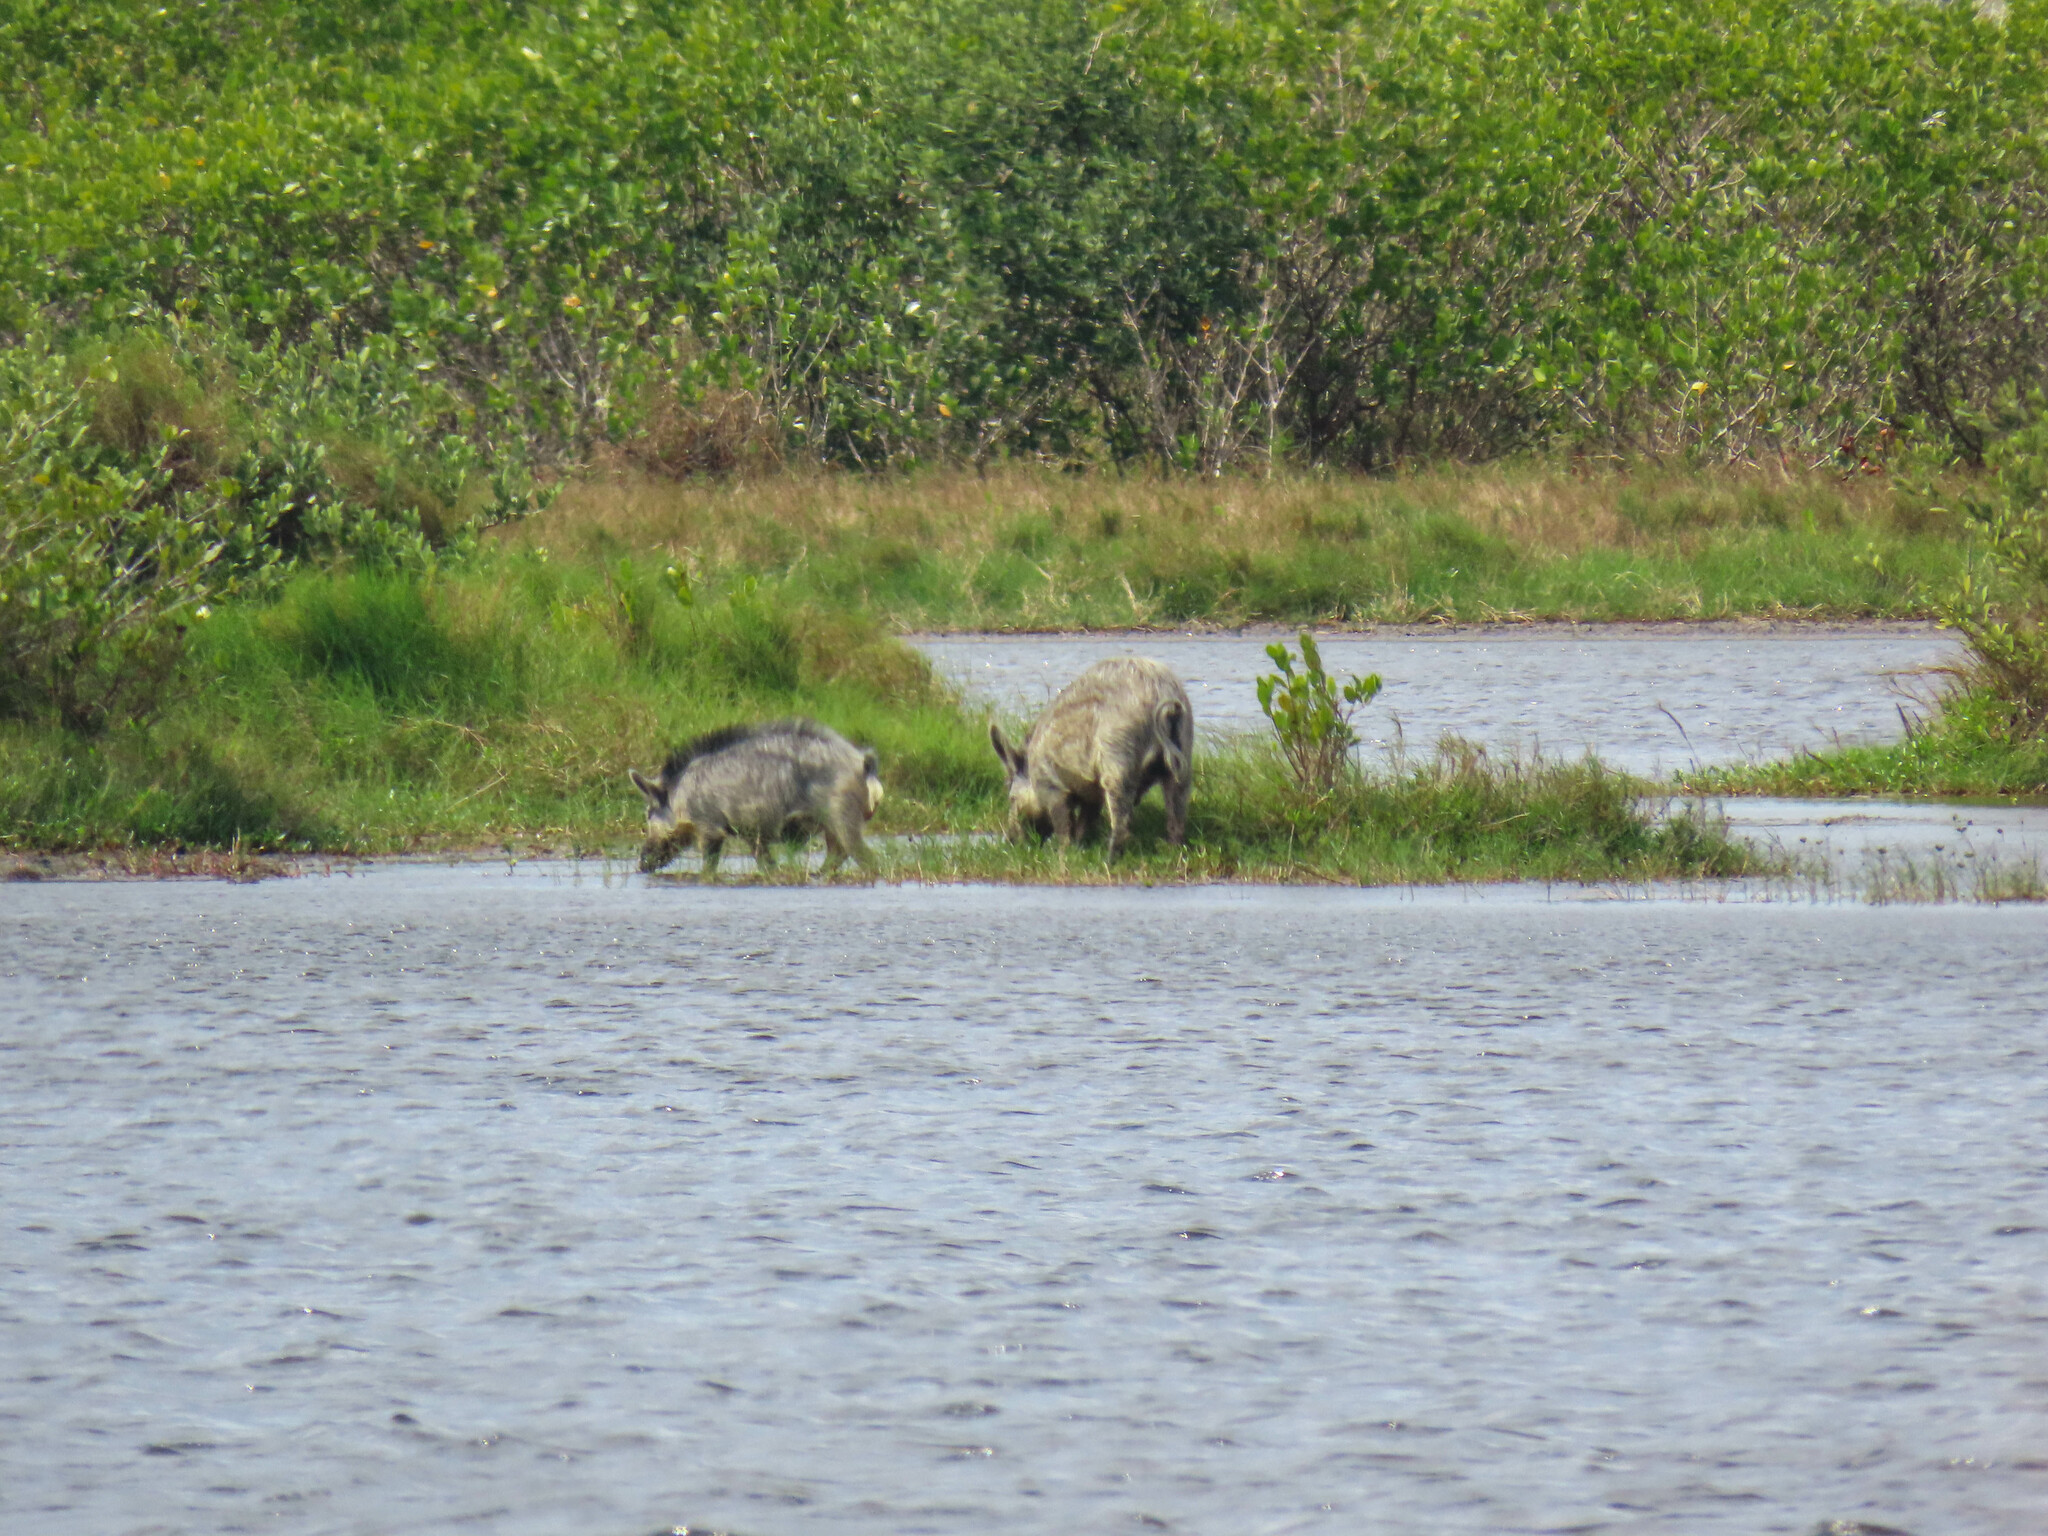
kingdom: Animalia
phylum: Chordata
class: Mammalia
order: Artiodactyla
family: Suidae
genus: Sus
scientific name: Sus scrofa
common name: Wild boar
